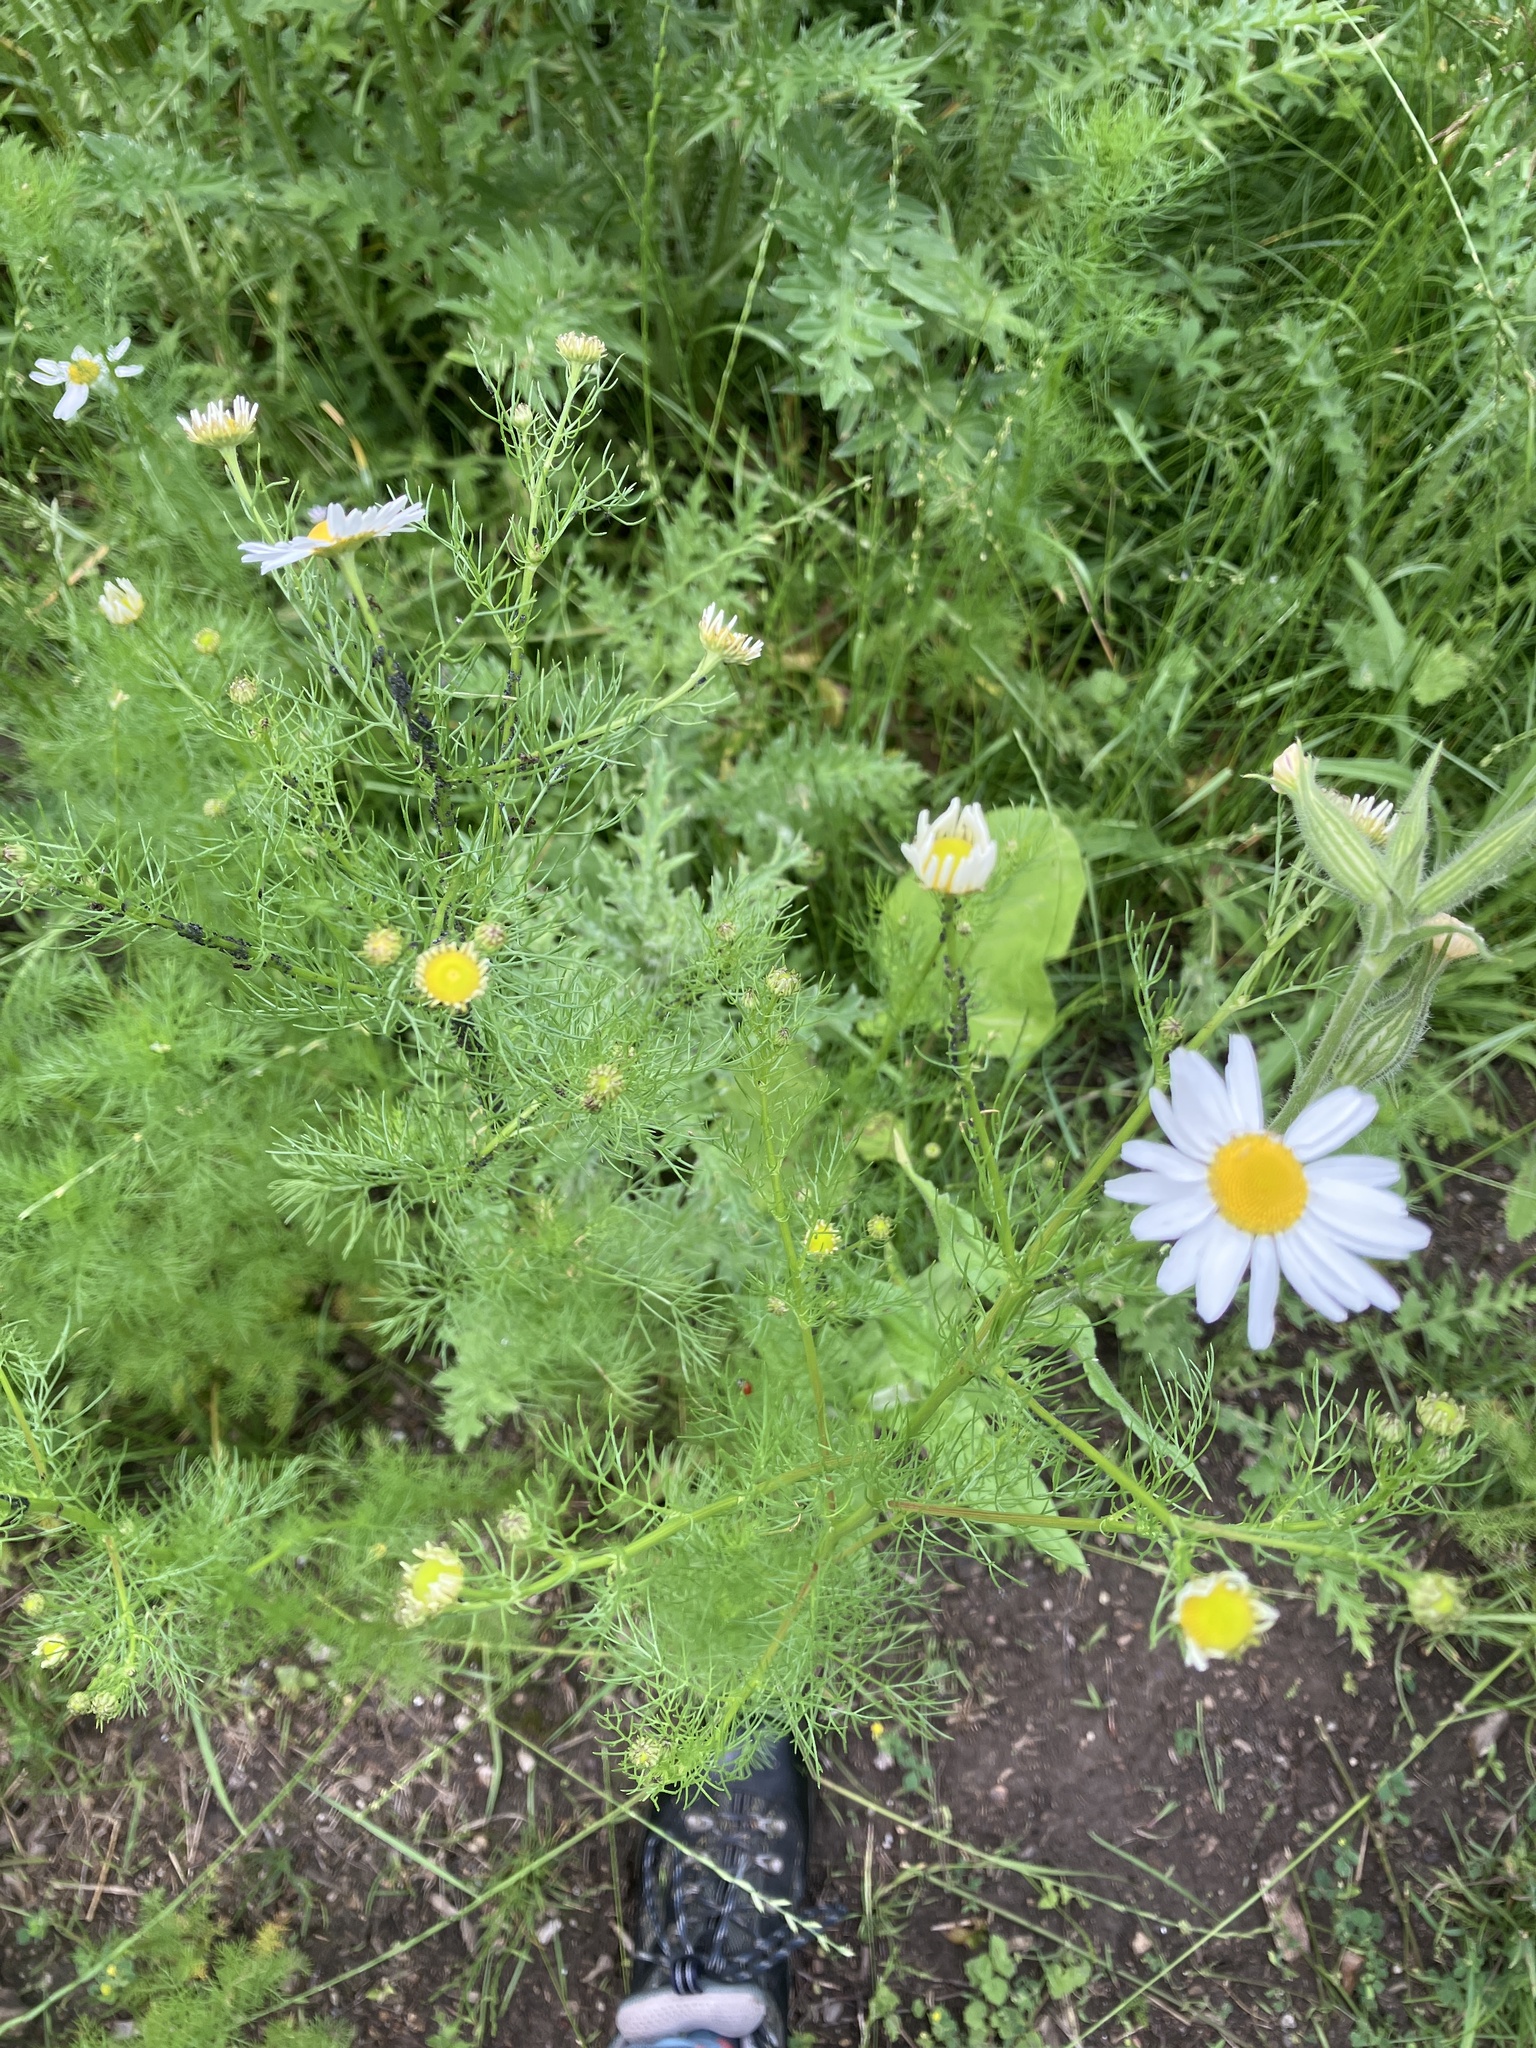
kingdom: Plantae
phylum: Tracheophyta
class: Magnoliopsida
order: Asterales
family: Asteraceae
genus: Tripleurospermum
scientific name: Tripleurospermum inodorum
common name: Scentless mayweed
